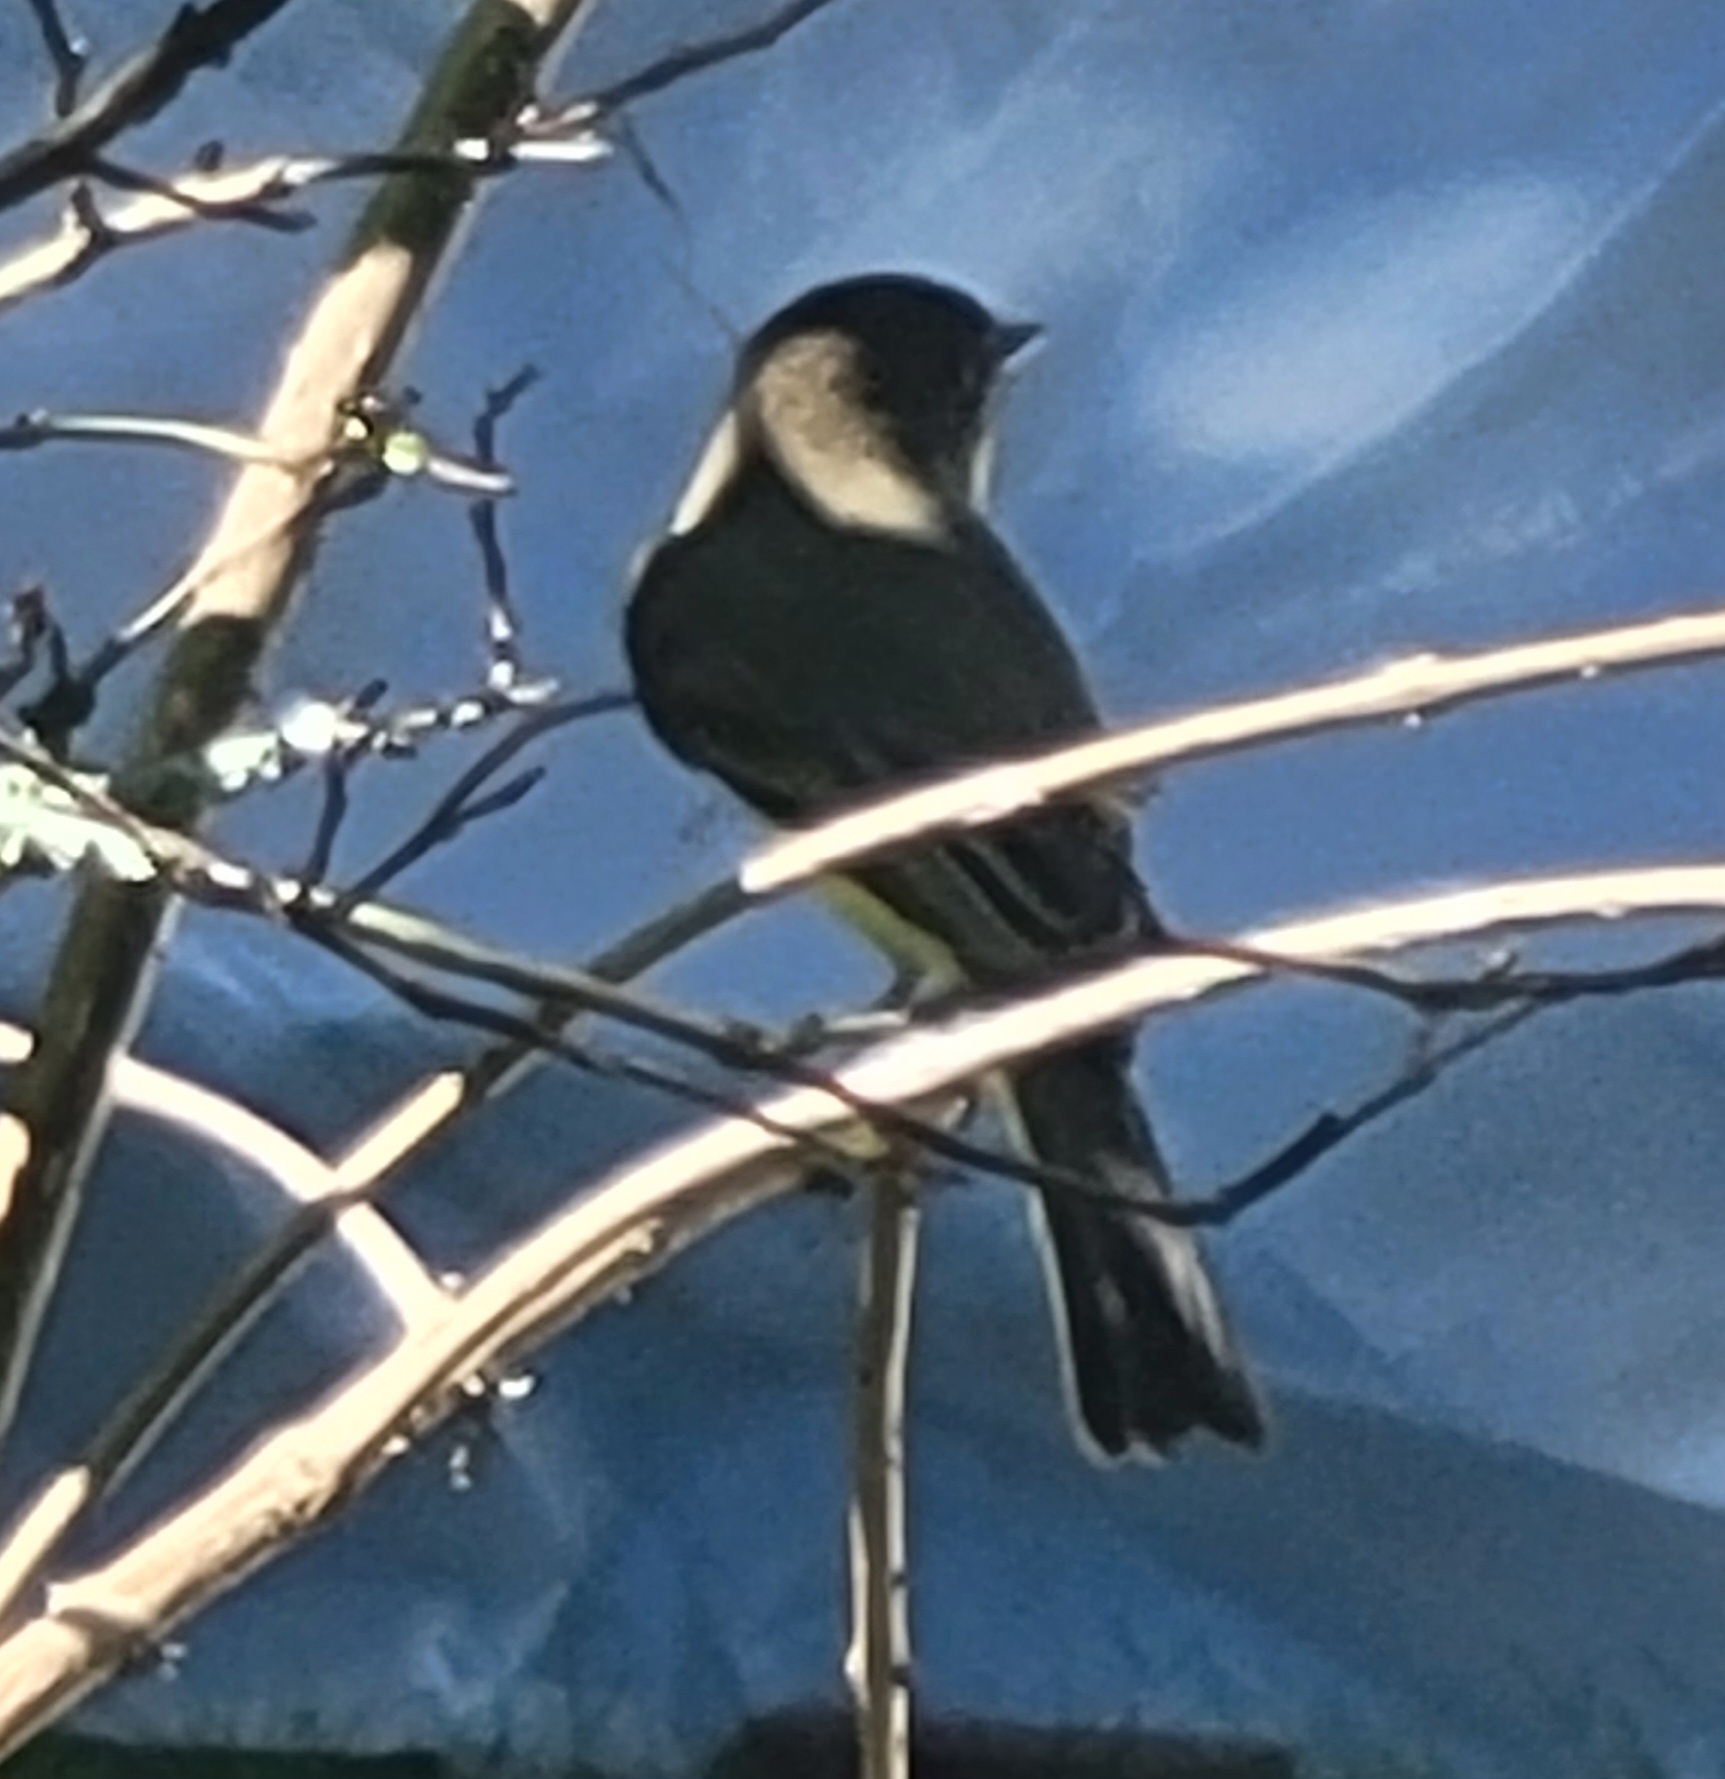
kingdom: Animalia
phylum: Chordata
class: Aves
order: Passeriformes
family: Tyrannidae
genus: Sayornis
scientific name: Sayornis phoebe
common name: Eastern phoebe
